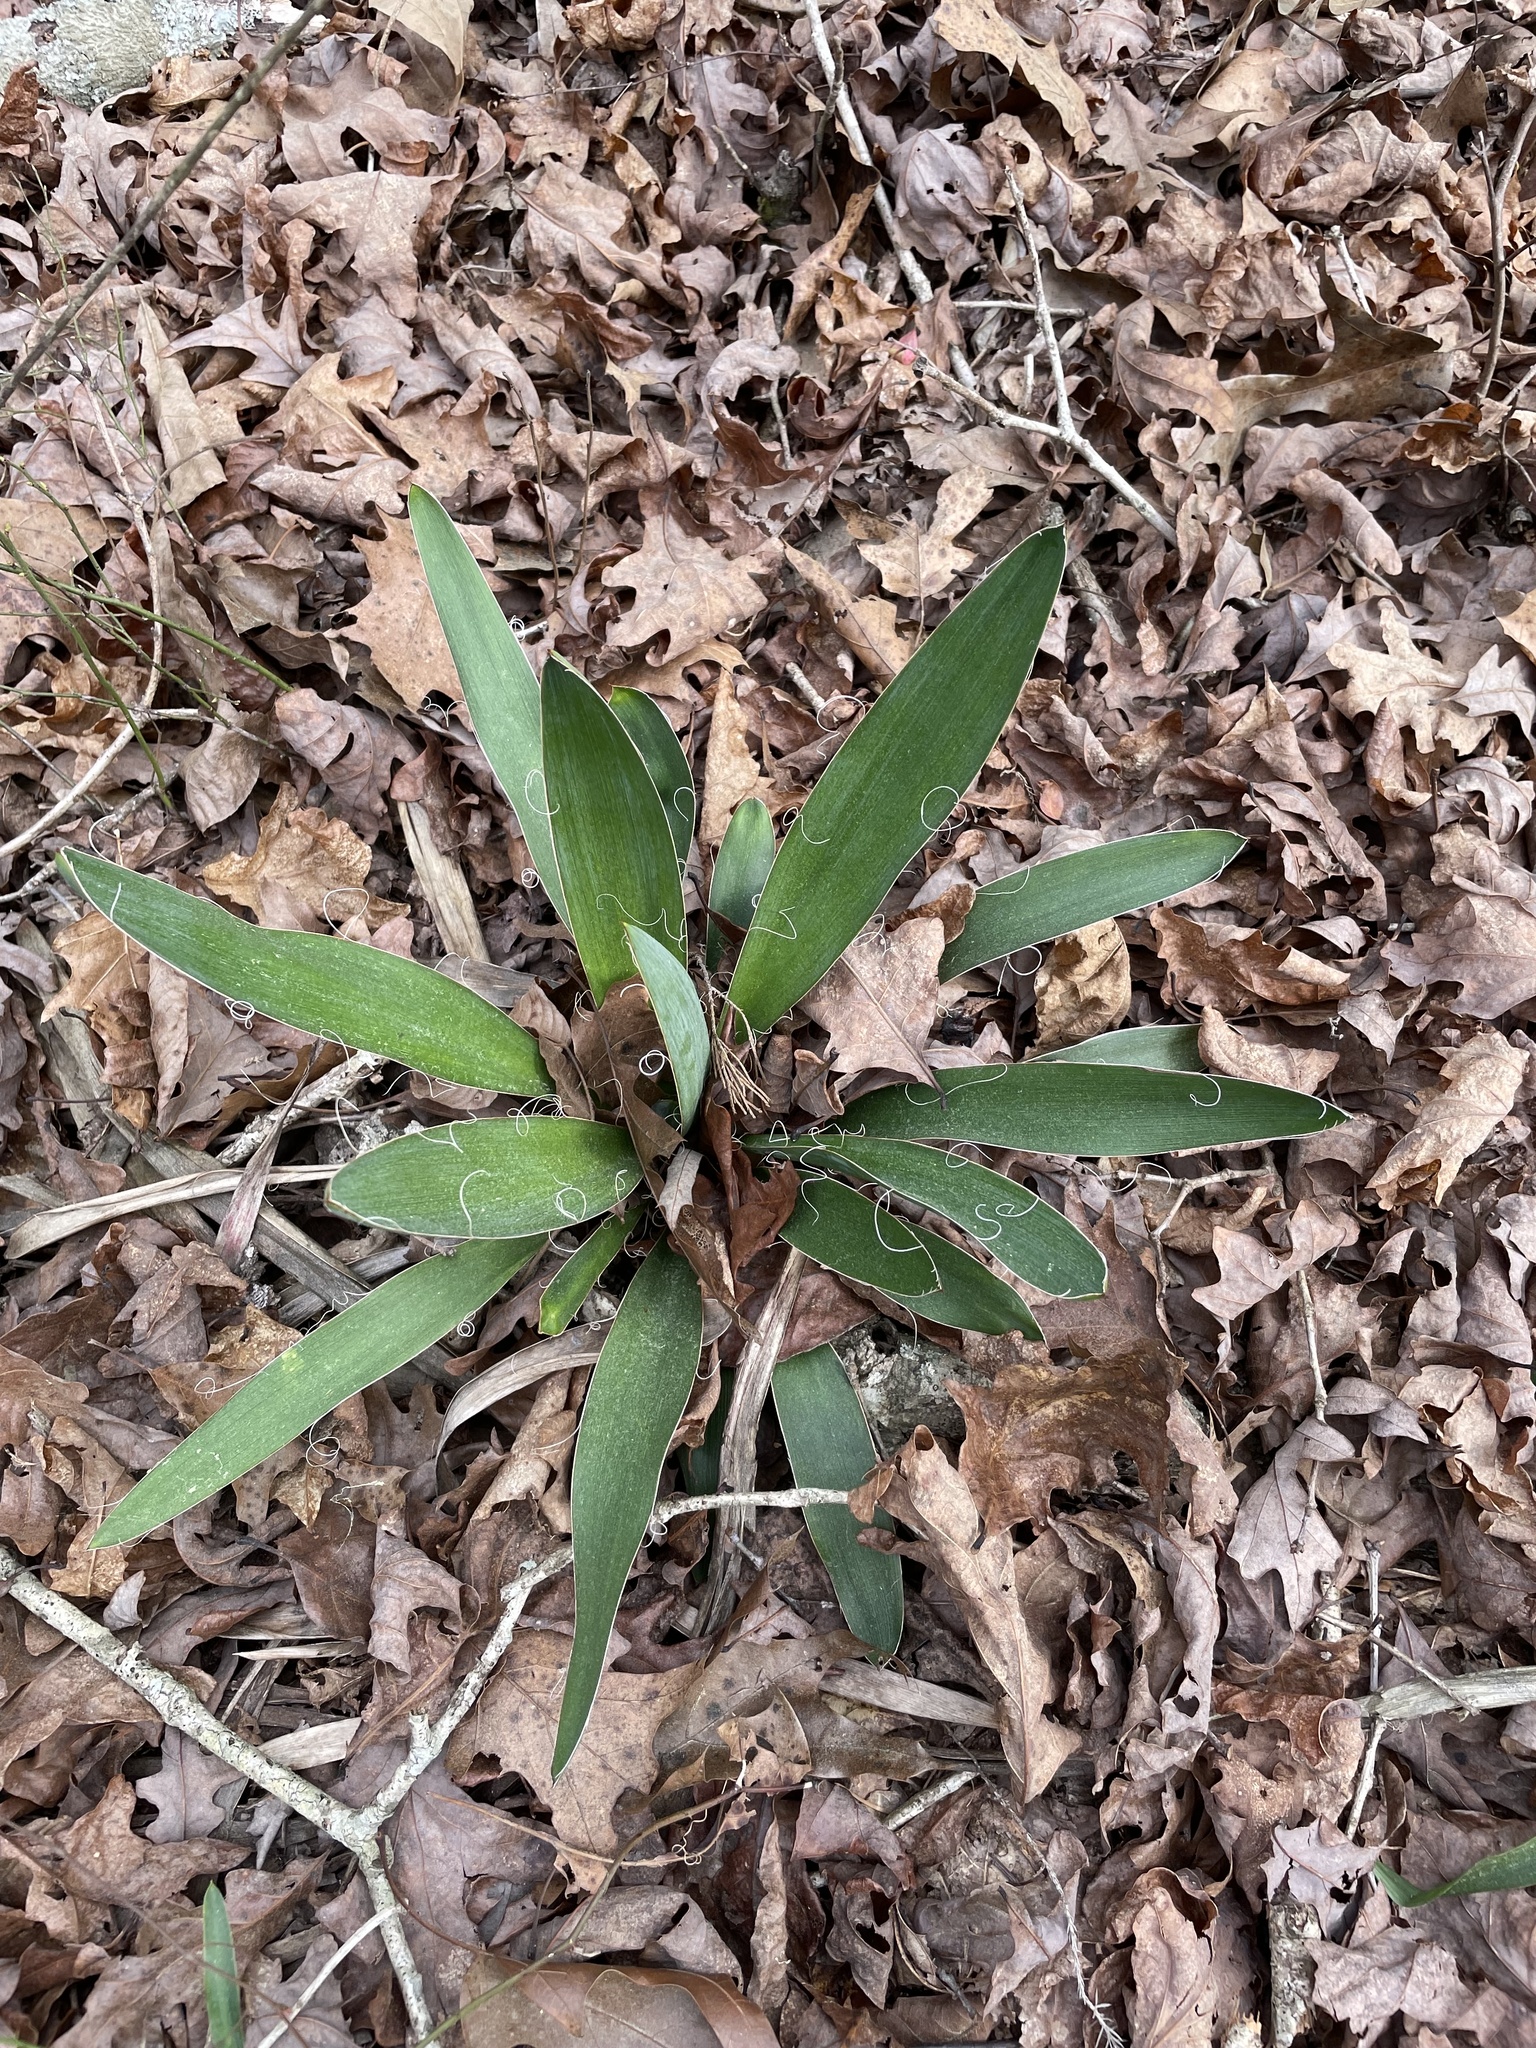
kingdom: Plantae
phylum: Tracheophyta
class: Liliopsida
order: Asparagales
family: Asparagaceae
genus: Yucca
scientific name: Yucca filamentosa
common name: Adam's-needle
